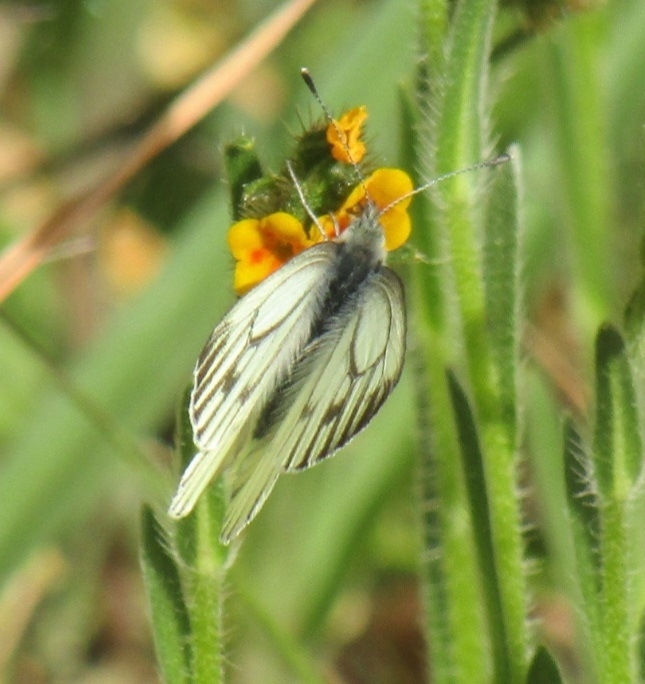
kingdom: Animalia
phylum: Arthropoda
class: Insecta
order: Lepidoptera
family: Pieridae
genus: Pieris
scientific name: Pieris marginalis
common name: Margined white
